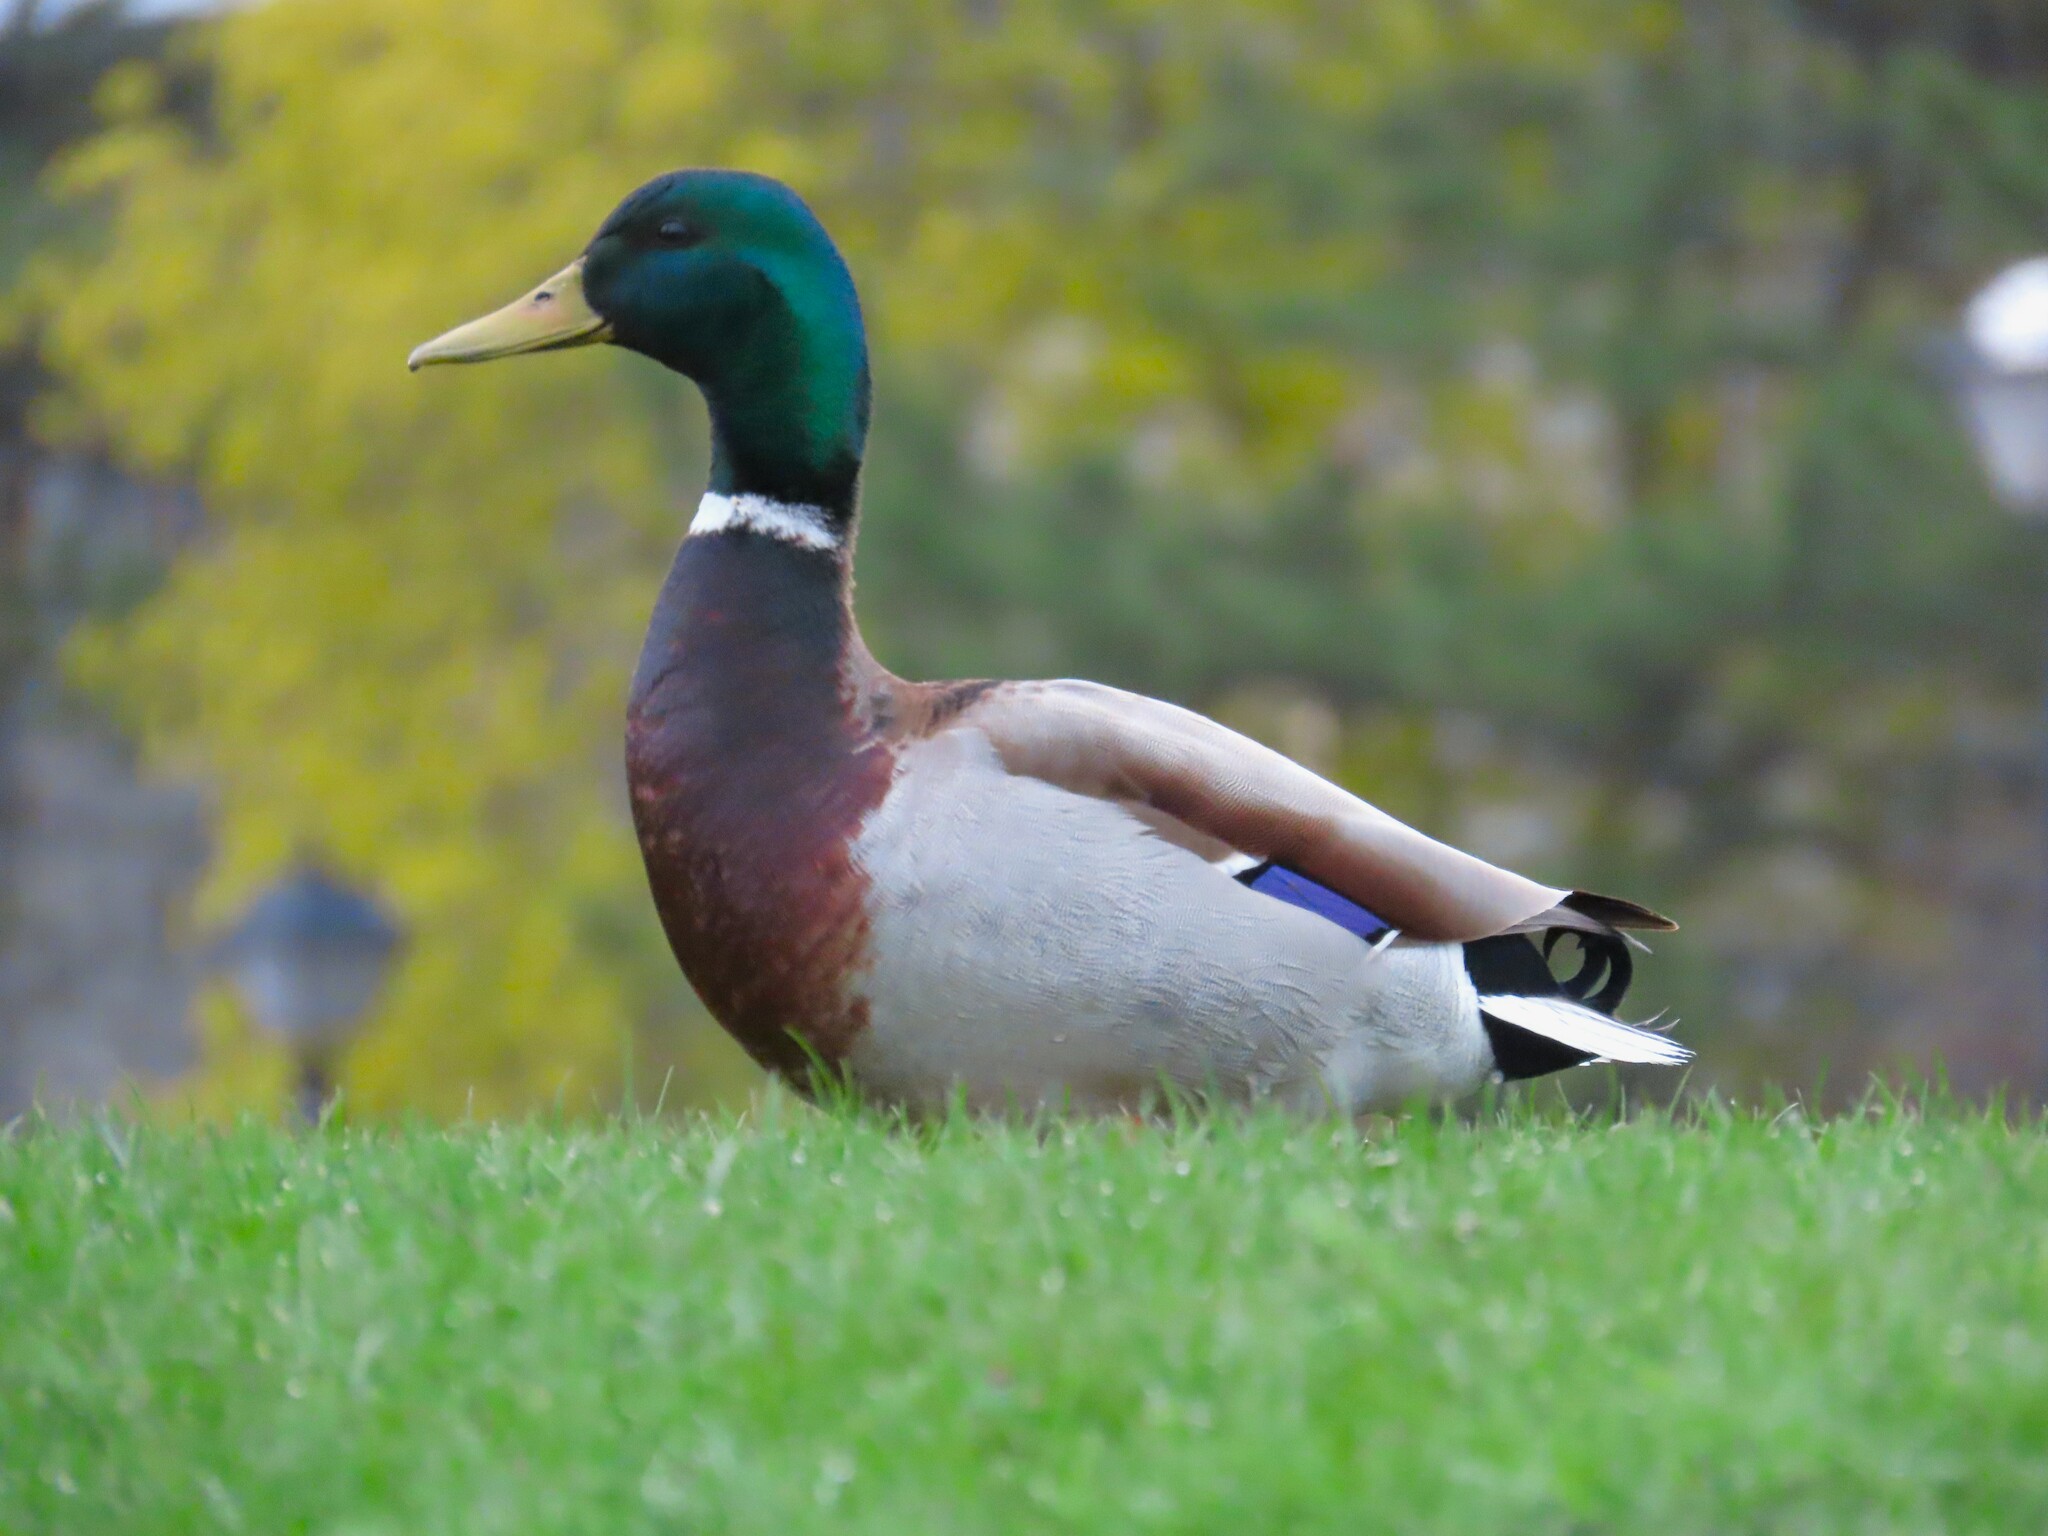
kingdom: Animalia
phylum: Chordata
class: Aves
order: Anseriformes
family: Anatidae
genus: Anas
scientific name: Anas platyrhynchos
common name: Mallard
